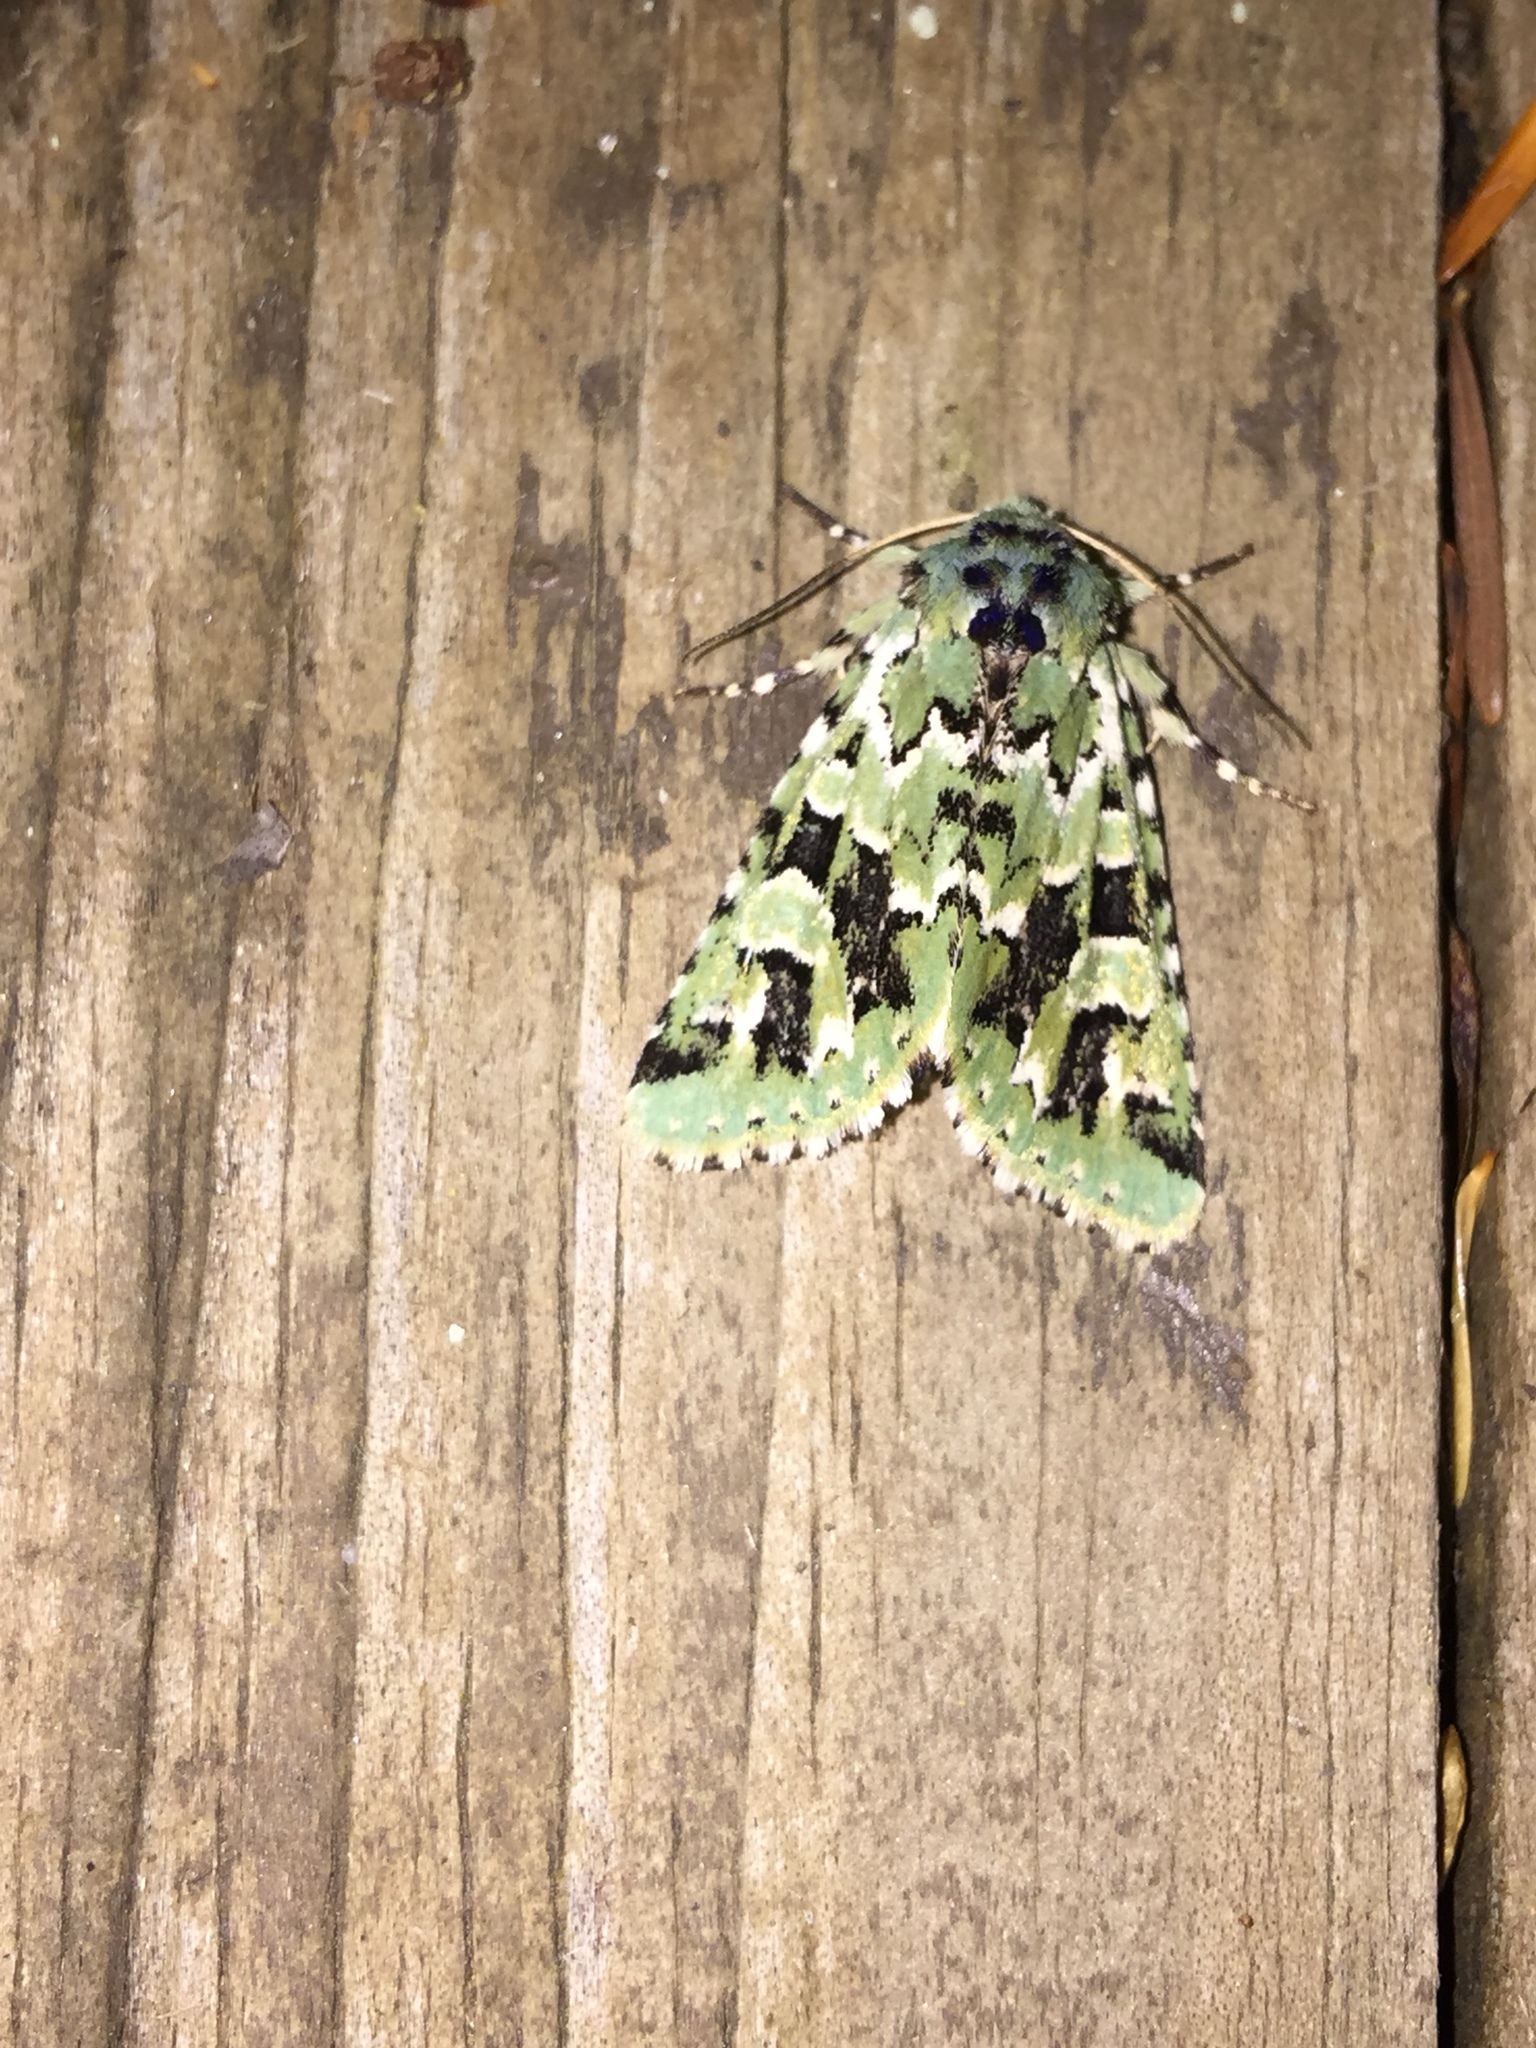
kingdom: Animalia
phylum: Arthropoda
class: Insecta
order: Lepidoptera
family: Noctuidae
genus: Feralia
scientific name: Feralia comstocki
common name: Comstock's sallow
